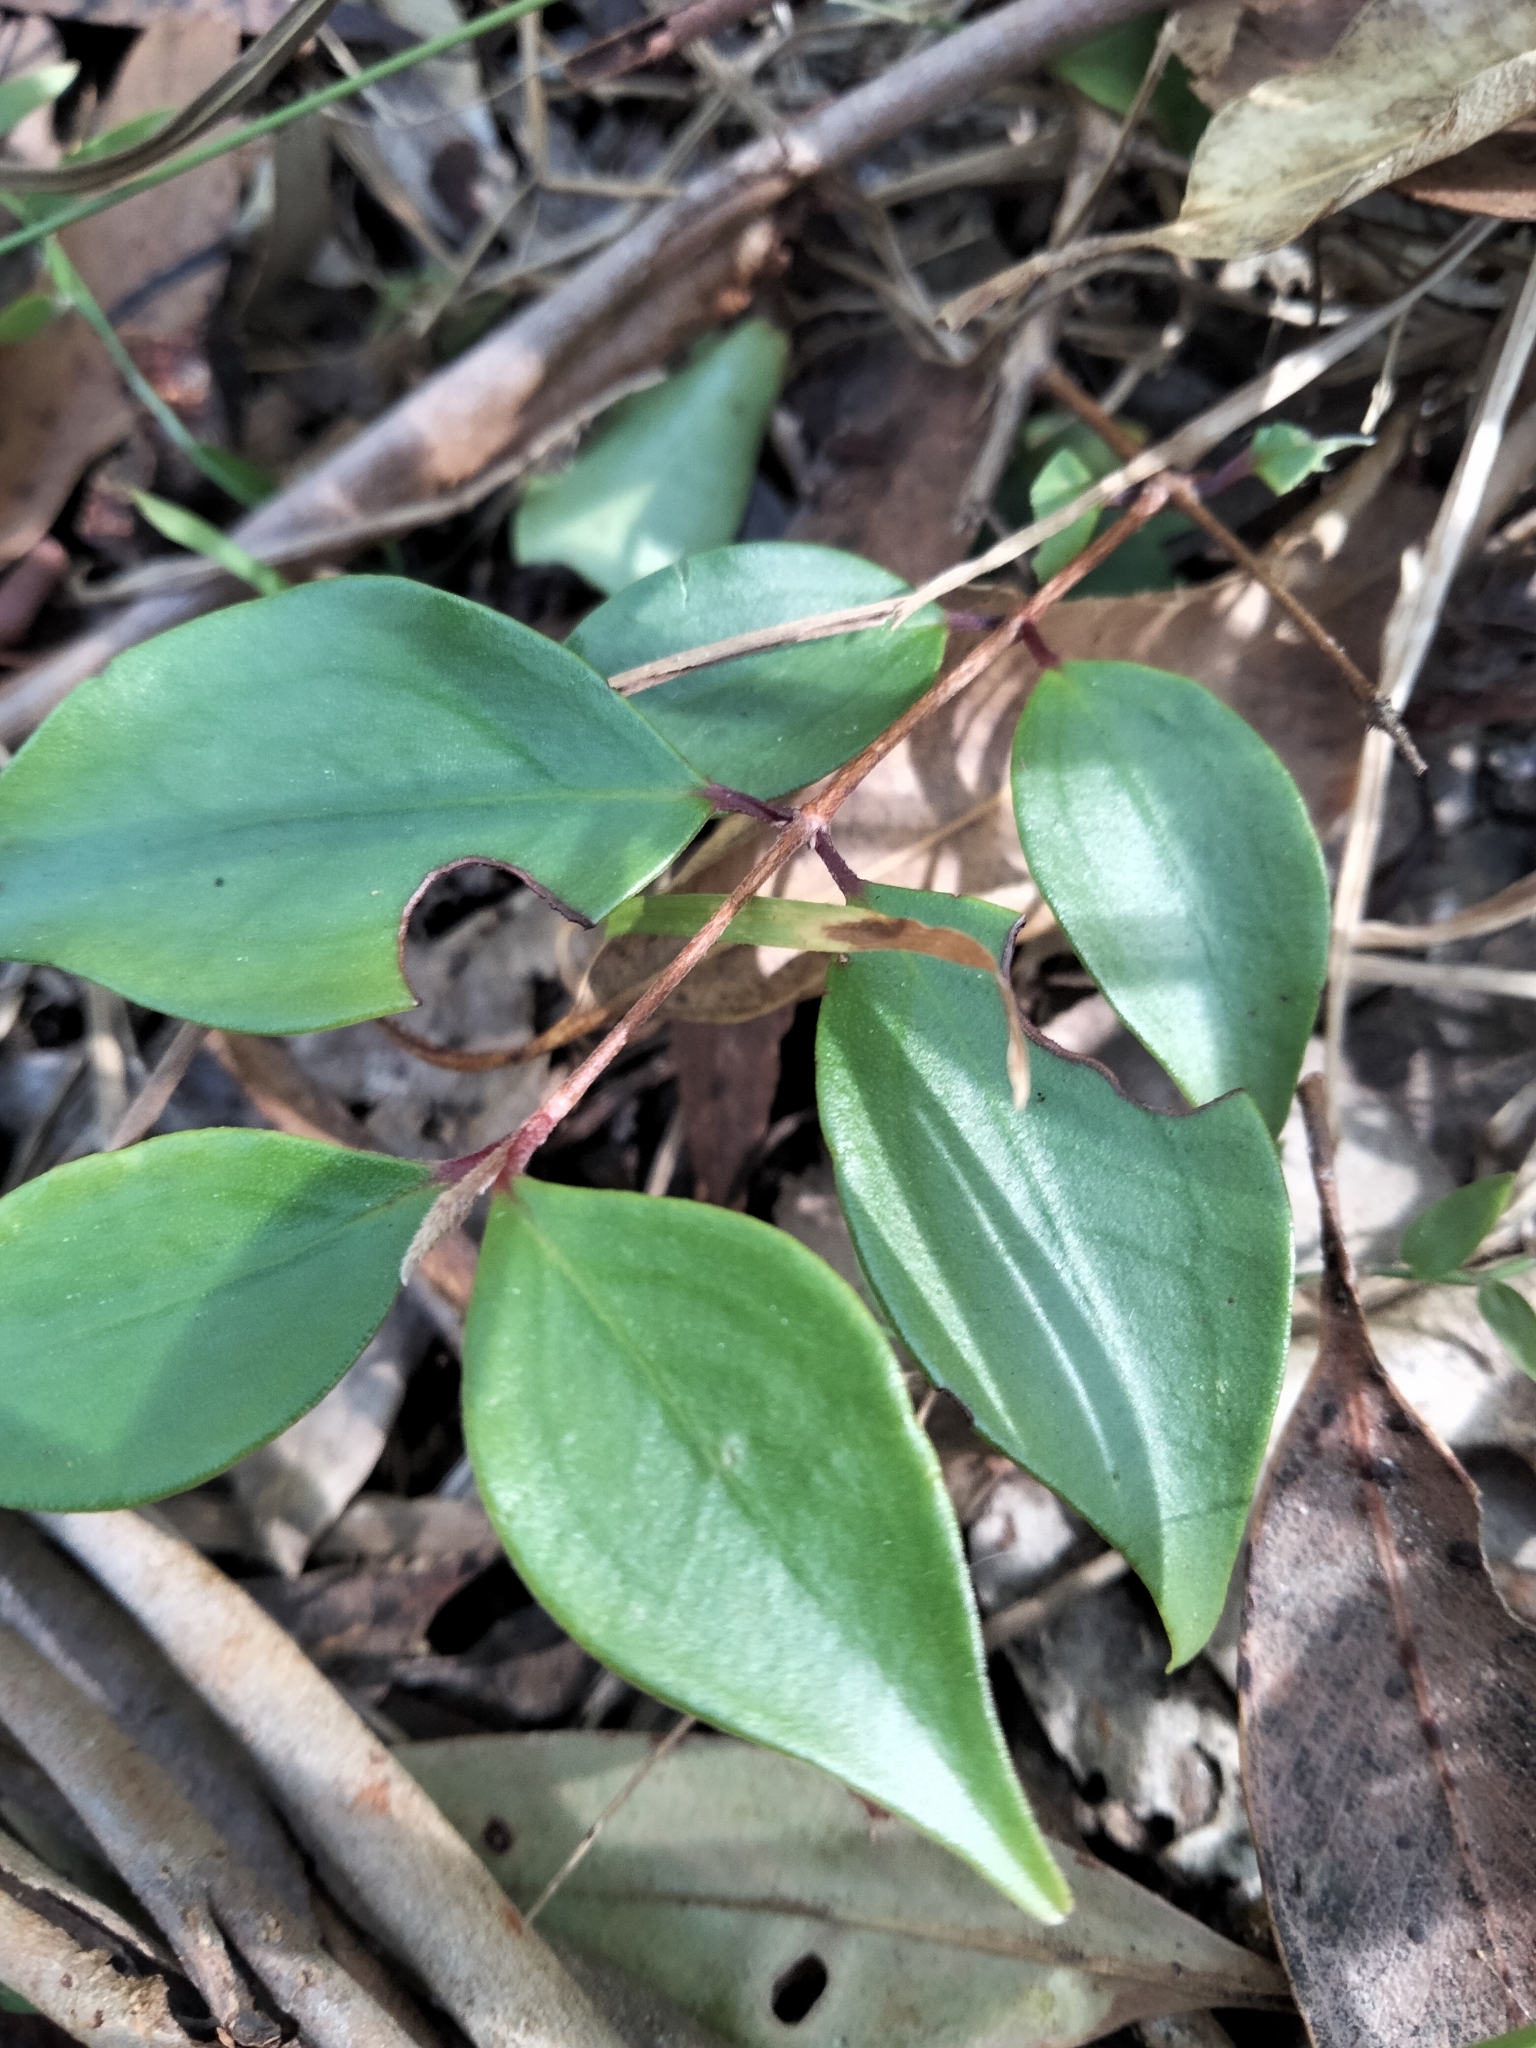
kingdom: Plantae
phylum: Tracheophyta
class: Magnoliopsida
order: Myrtales
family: Myrtaceae
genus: Archirhodomyrtus
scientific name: Archirhodomyrtus beckleri
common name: Beckler's myrtle
